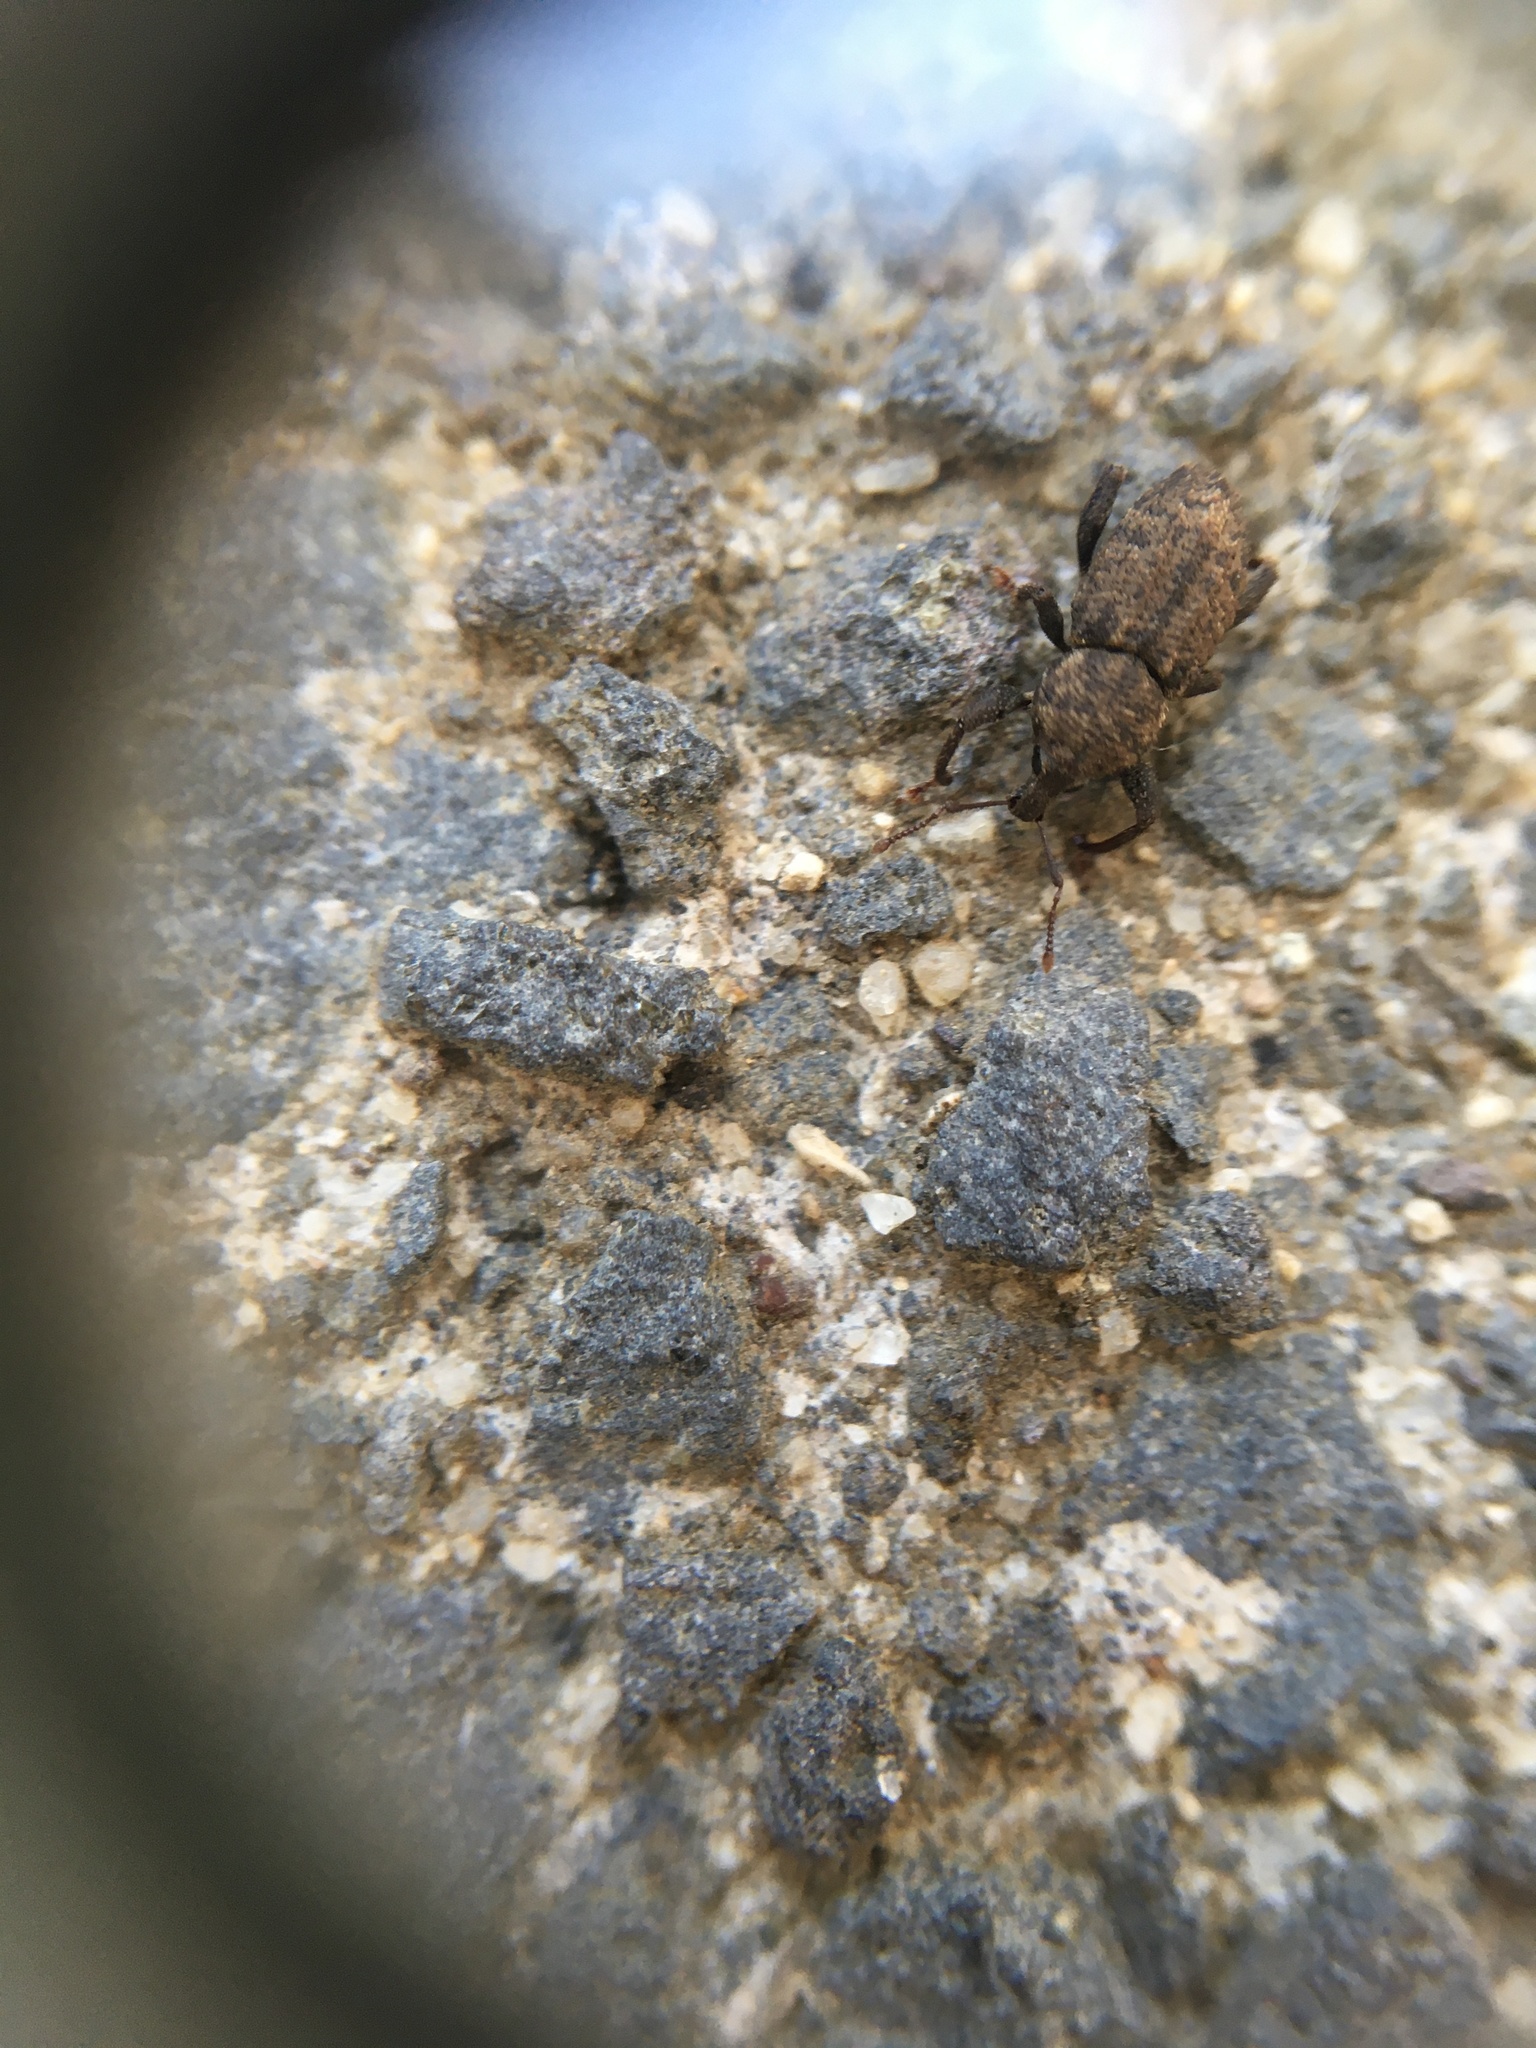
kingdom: Animalia
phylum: Arthropoda
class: Insecta
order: Coleoptera
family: Curculionidae
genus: Mandalotus
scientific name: Mandalotus miricollis
